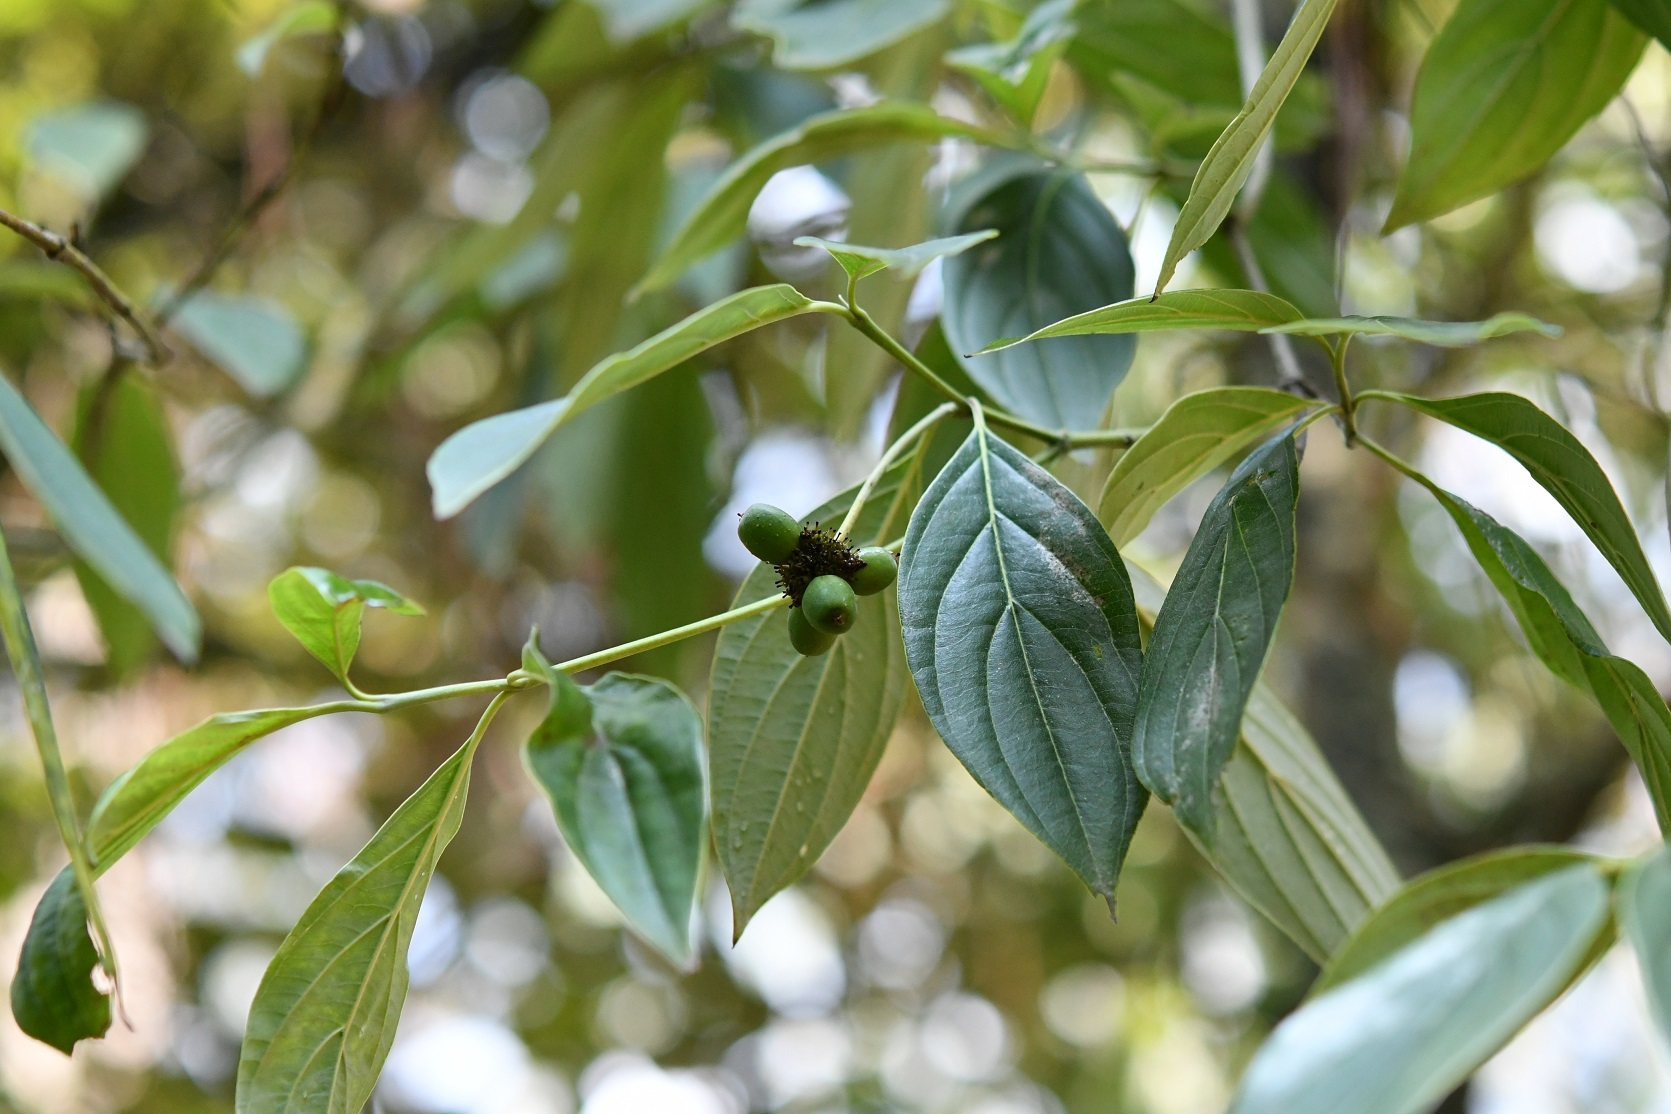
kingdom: Plantae
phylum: Tracheophyta
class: Magnoliopsida
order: Cornales
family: Cornaceae
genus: Cornus
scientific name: Cornus disciflora
